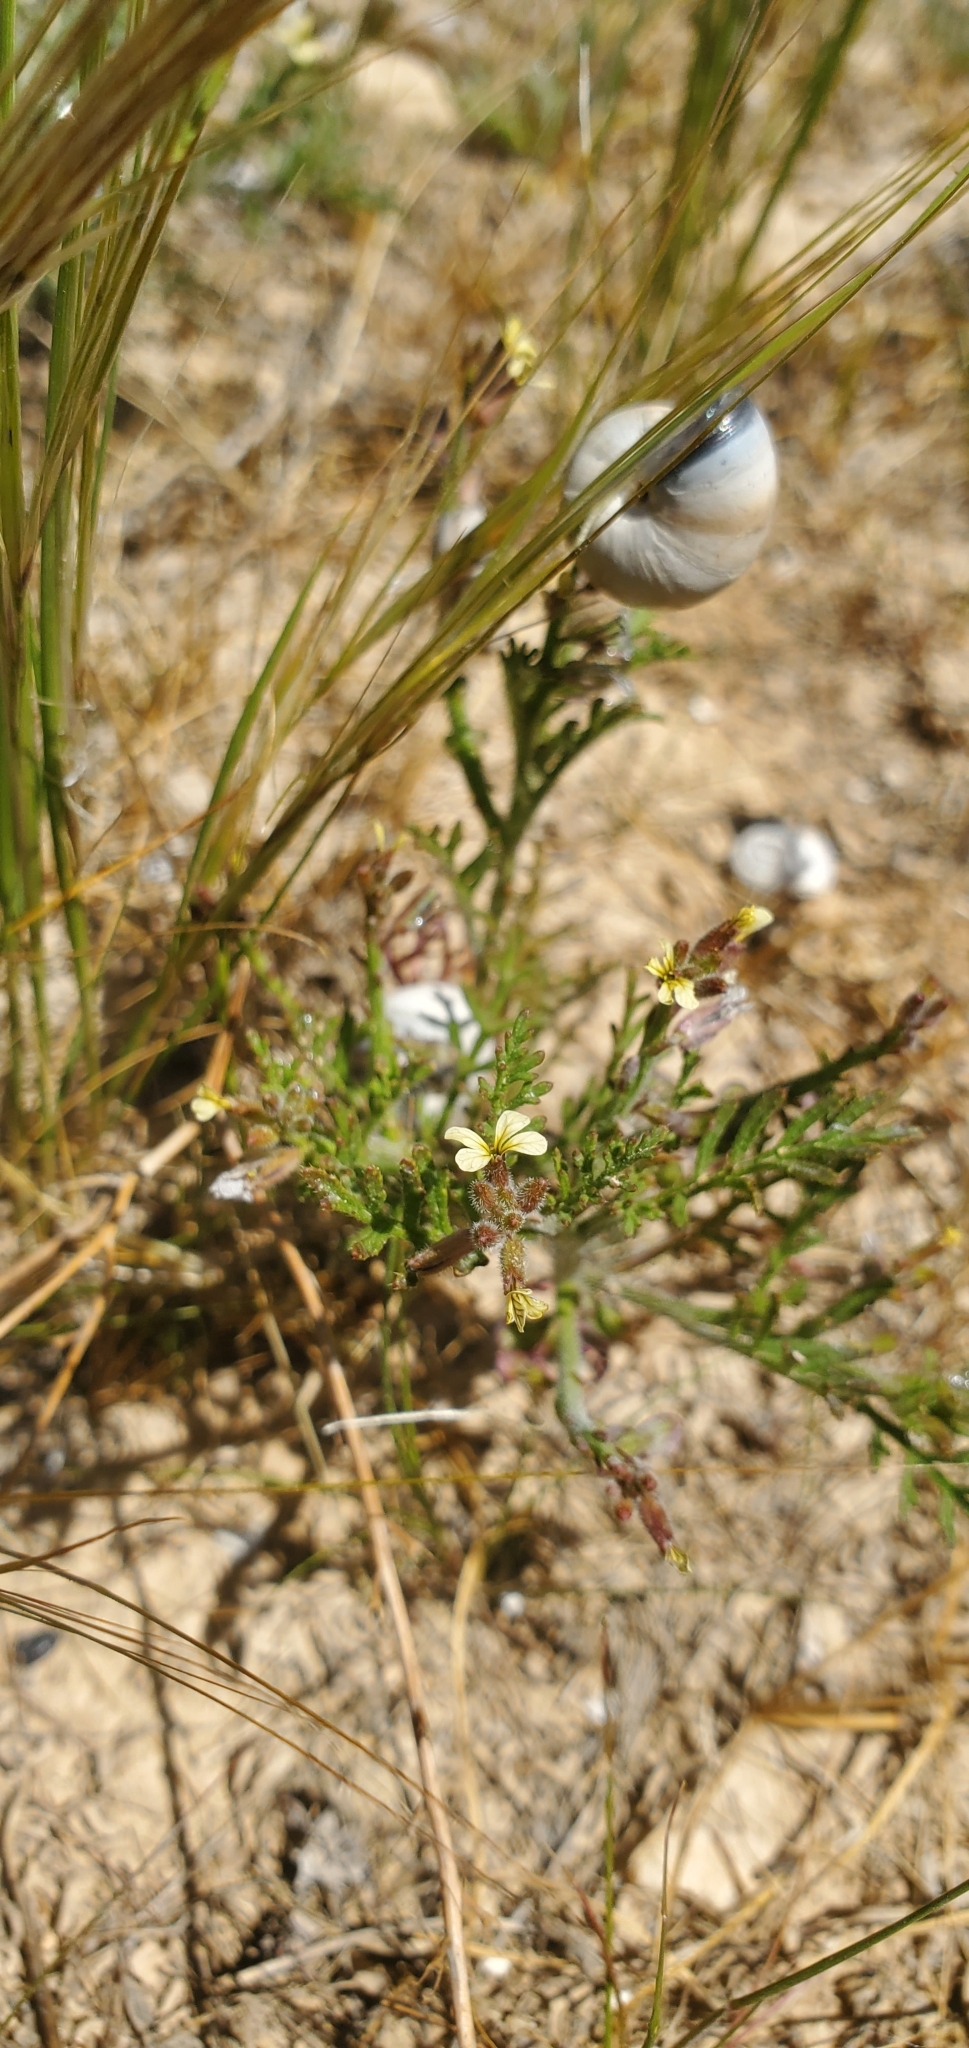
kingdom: Plantae
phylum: Tracheophyta
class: Magnoliopsida
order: Brassicales
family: Brassicaceae
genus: Carrichtera
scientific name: Carrichtera annua
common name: Cress rocket
